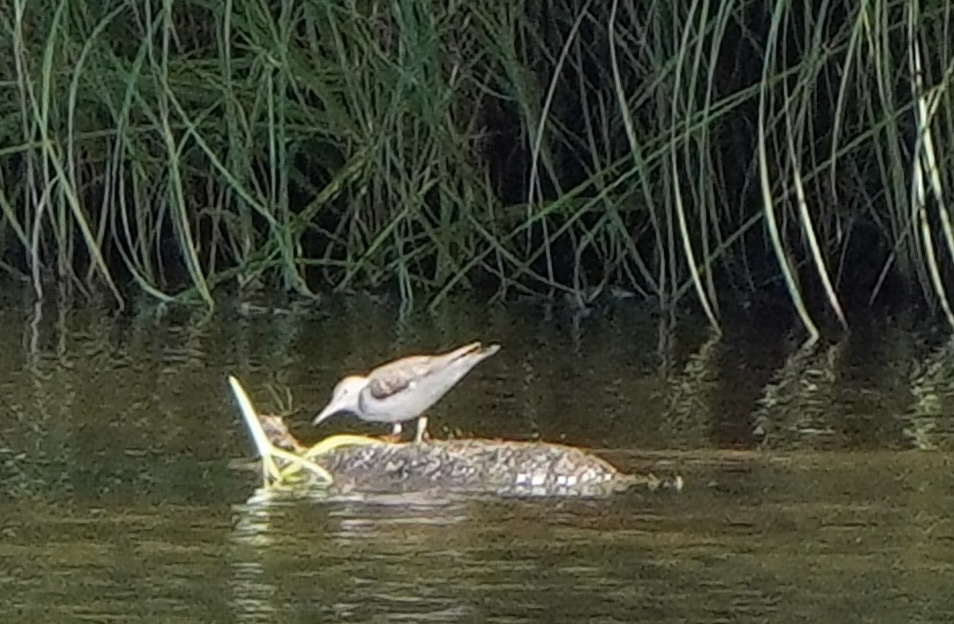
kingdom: Animalia
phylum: Chordata
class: Aves
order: Charadriiformes
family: Scolopacidae
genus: Actitis
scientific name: Actitis hypoleucos
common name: Common sandpiper
